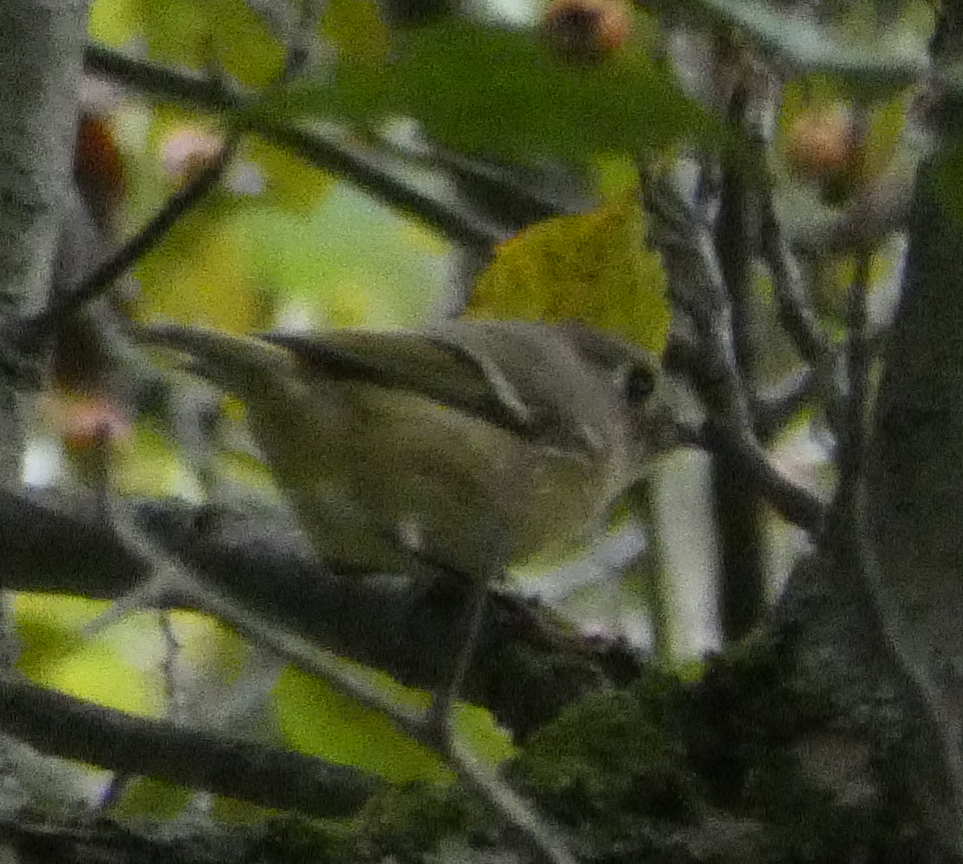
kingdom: Animalia
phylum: Chordata
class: Aves
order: Passeriformes
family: Regulidae
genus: Regulus
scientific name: Regulus calendula
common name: Ruby-crowned kinglet
